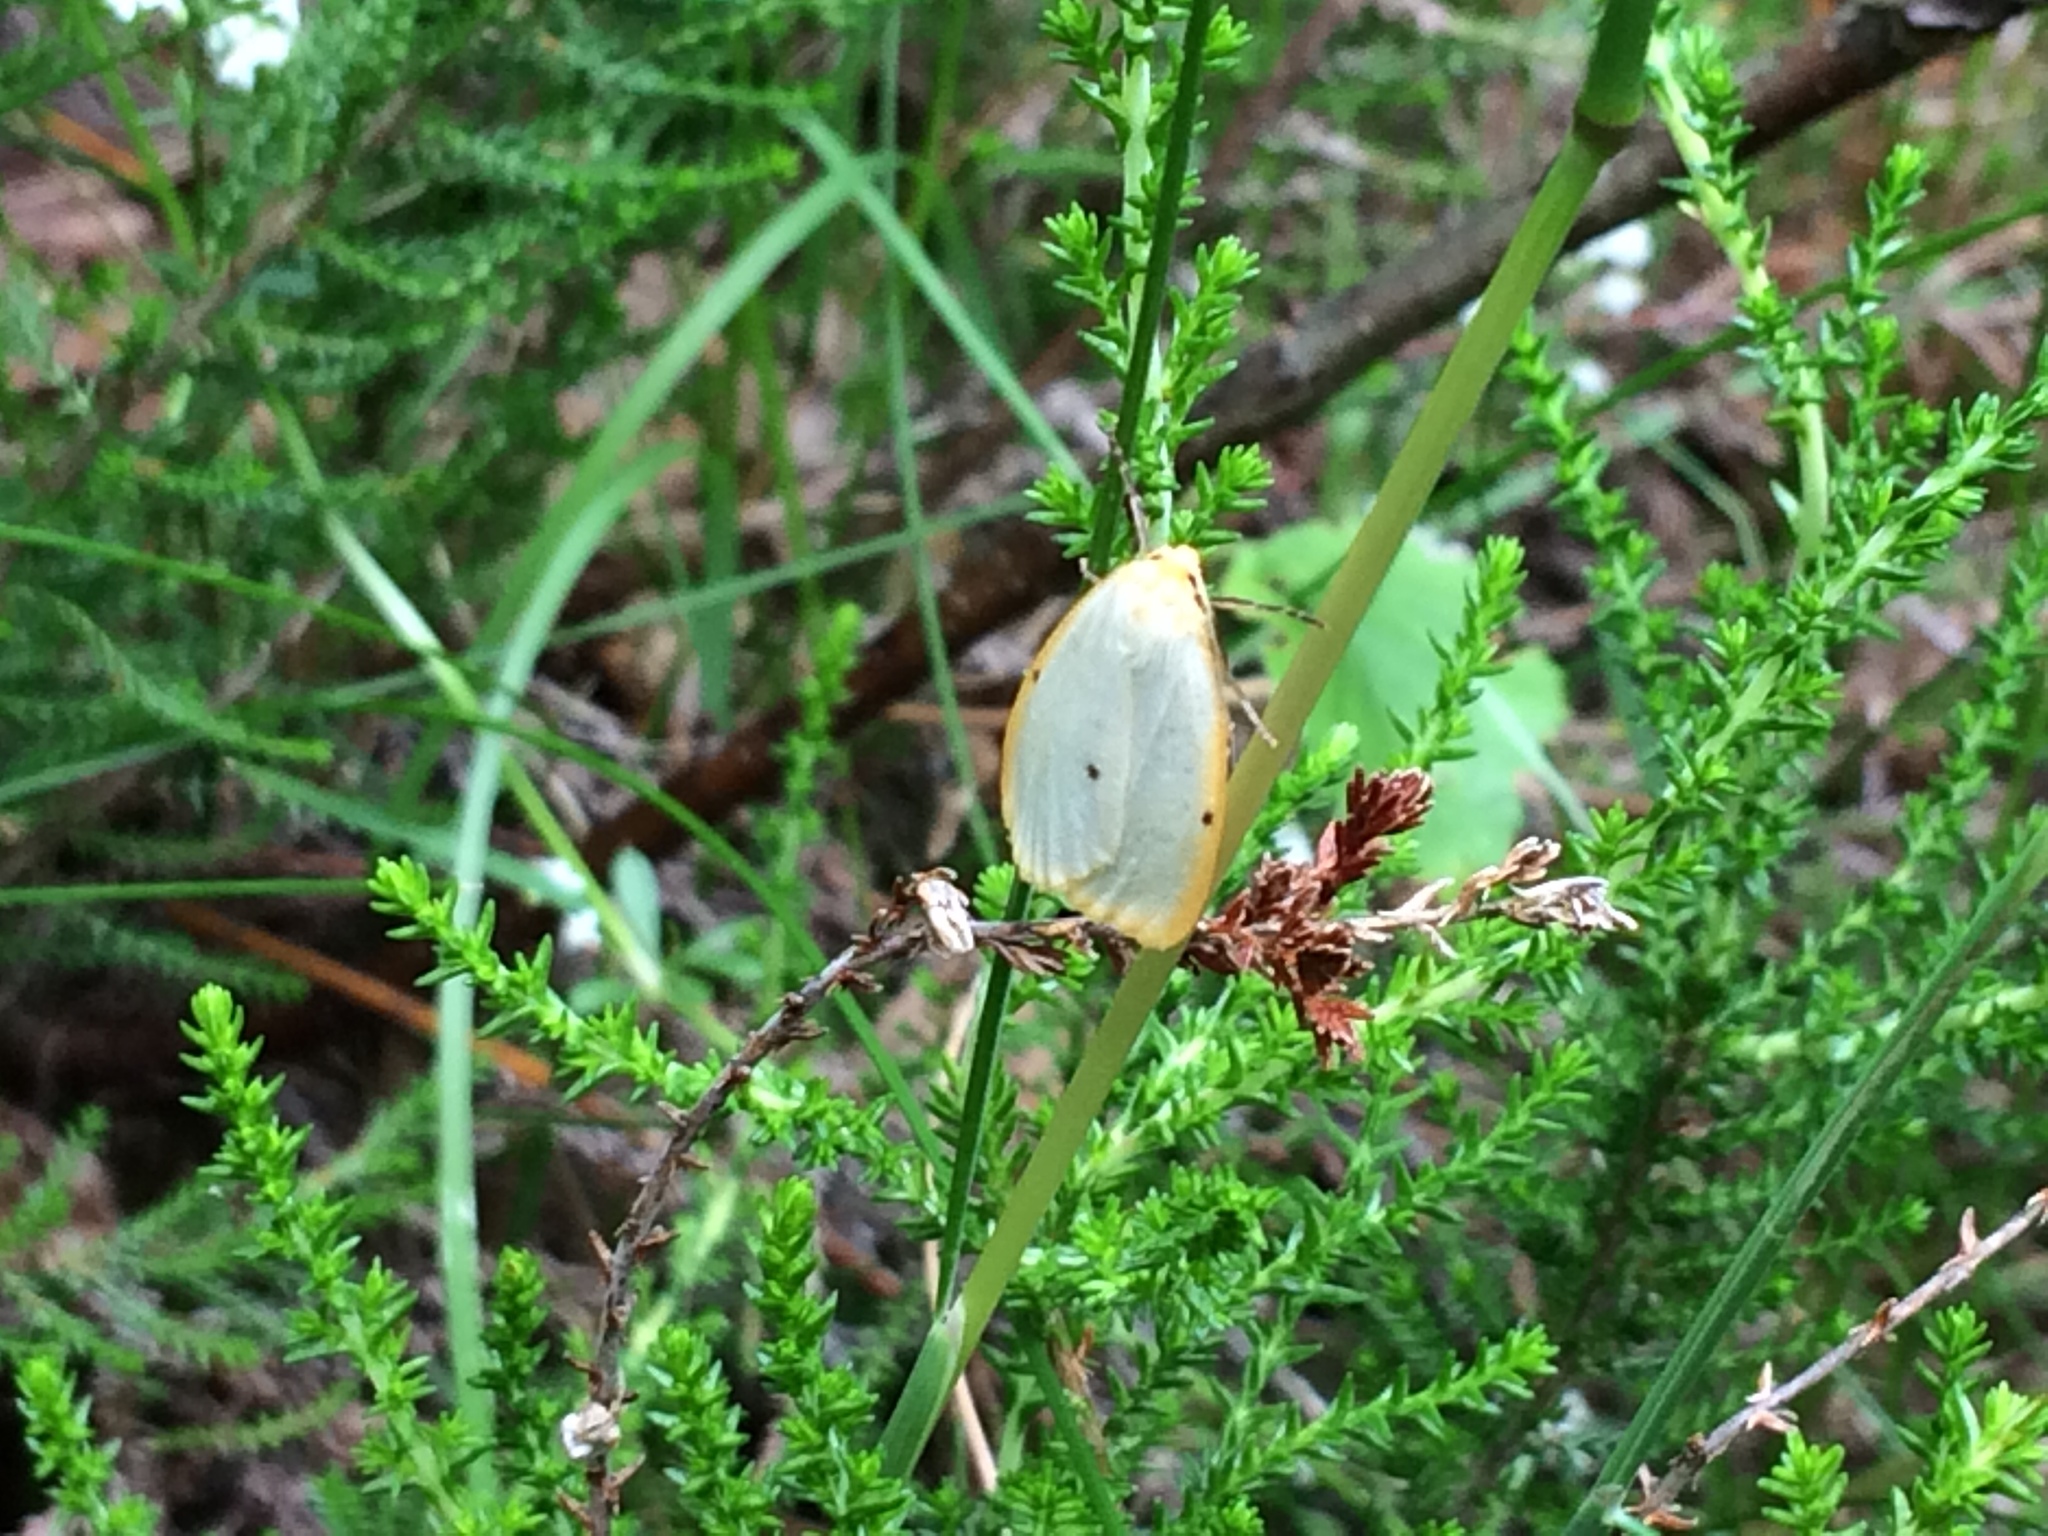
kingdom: Animalia
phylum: Arthropoda
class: Insecta
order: Lepidoptera
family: Erebidae
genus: Cybosia
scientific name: Cybosia mesomella
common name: Four-dotted footman
